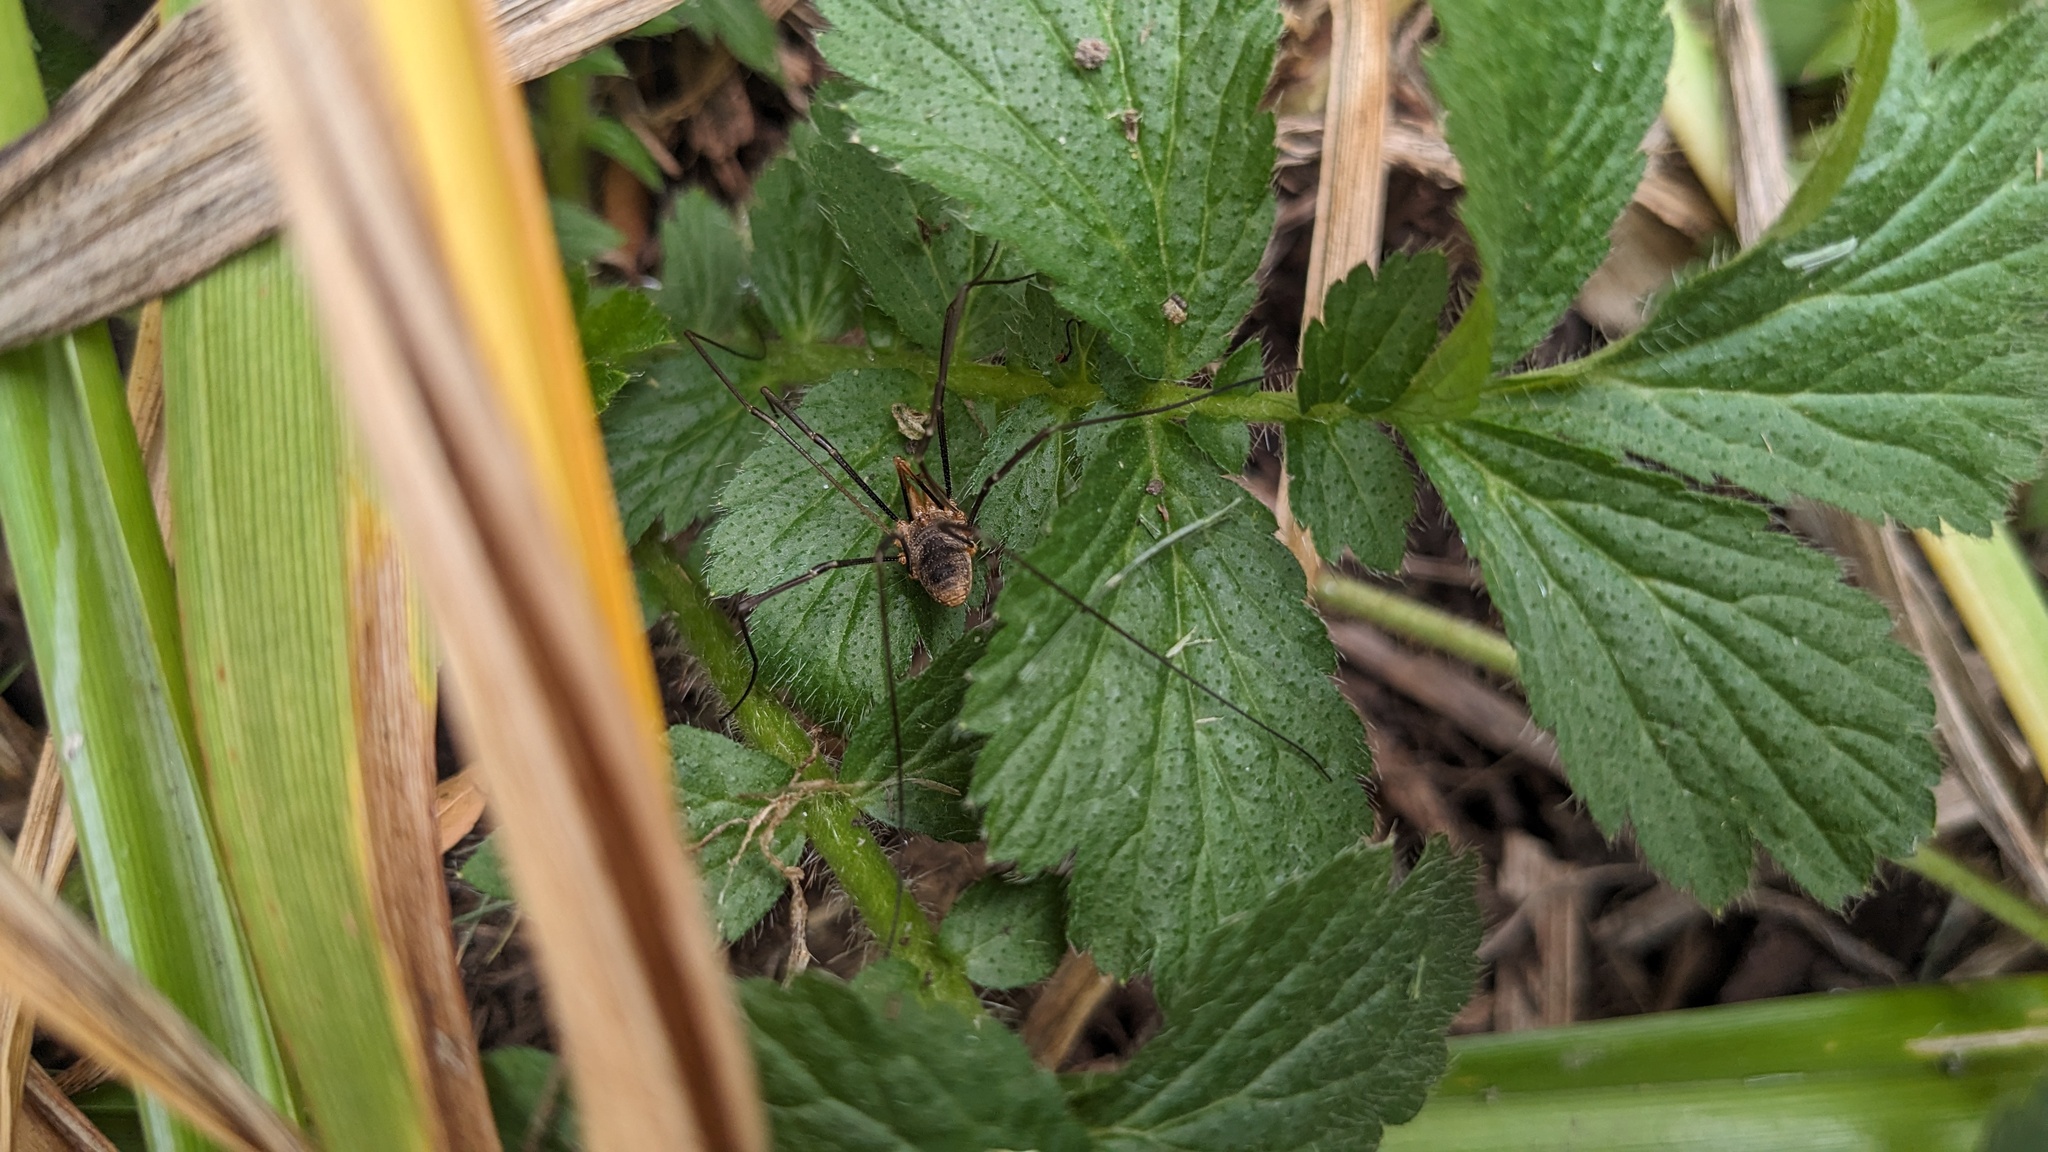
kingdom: Animalia
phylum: Arthropoda
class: Arachnida
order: Opiliones
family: Phalangiidae
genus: Phalangium
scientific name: Phalangium opilio
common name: Daddy longleg
